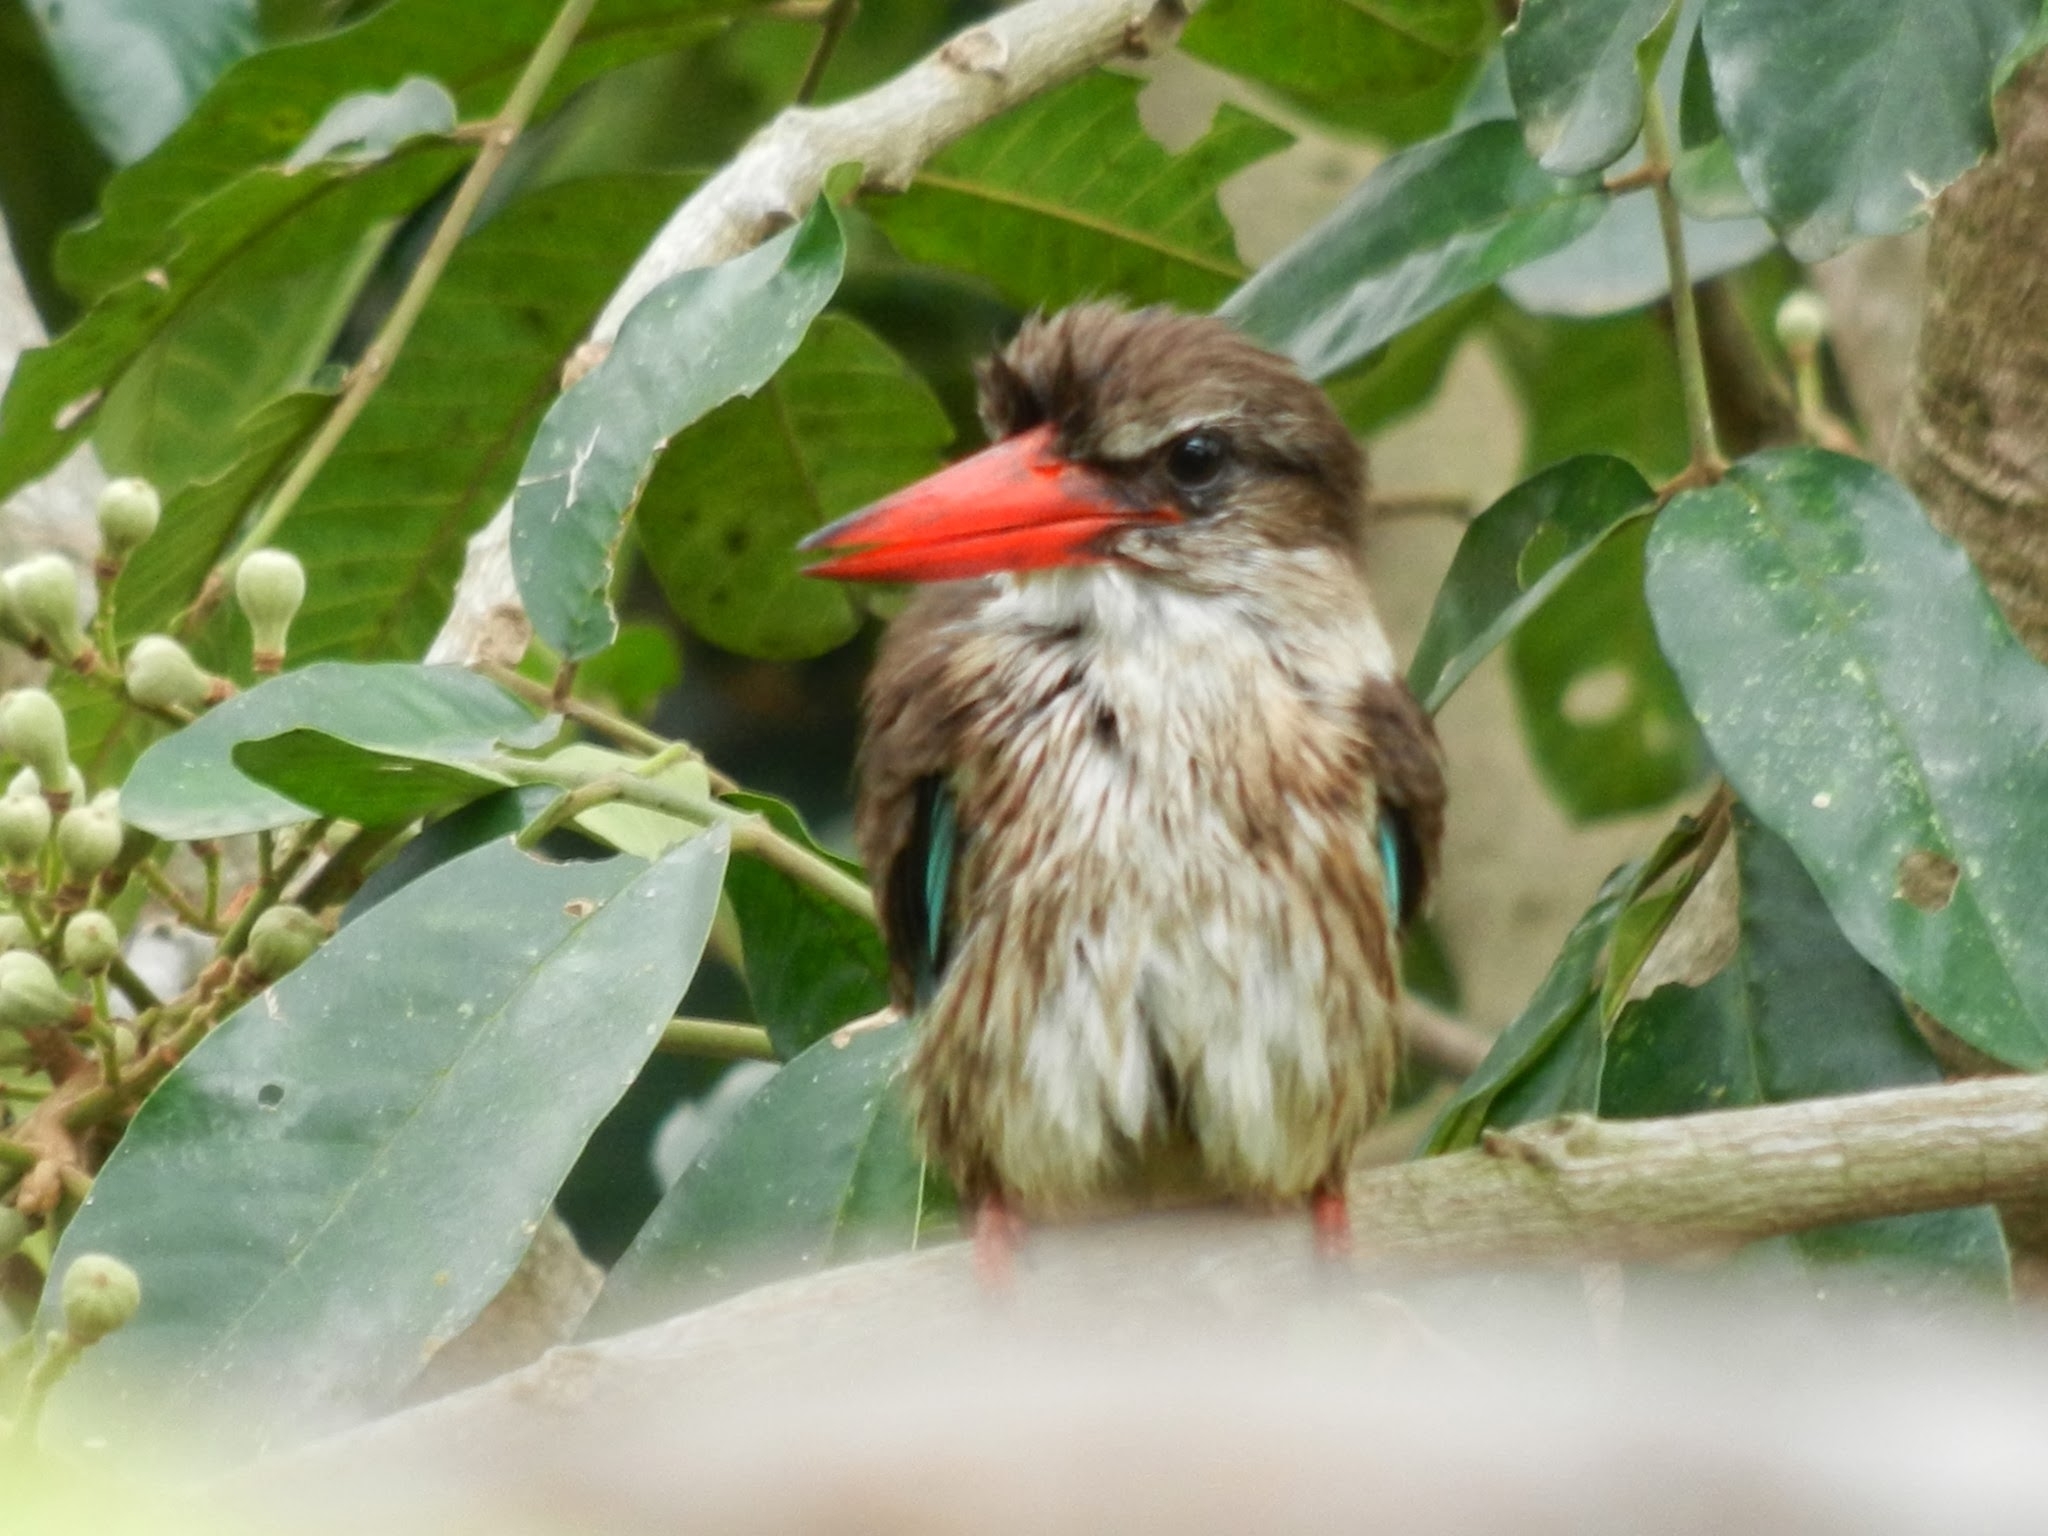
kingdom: Animalia
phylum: Chordata
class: Aves
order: Coraciiformes
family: Alcedinidae
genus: Halcyon
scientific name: Halcyon albiventris
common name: Brown-hooded kingfisher
